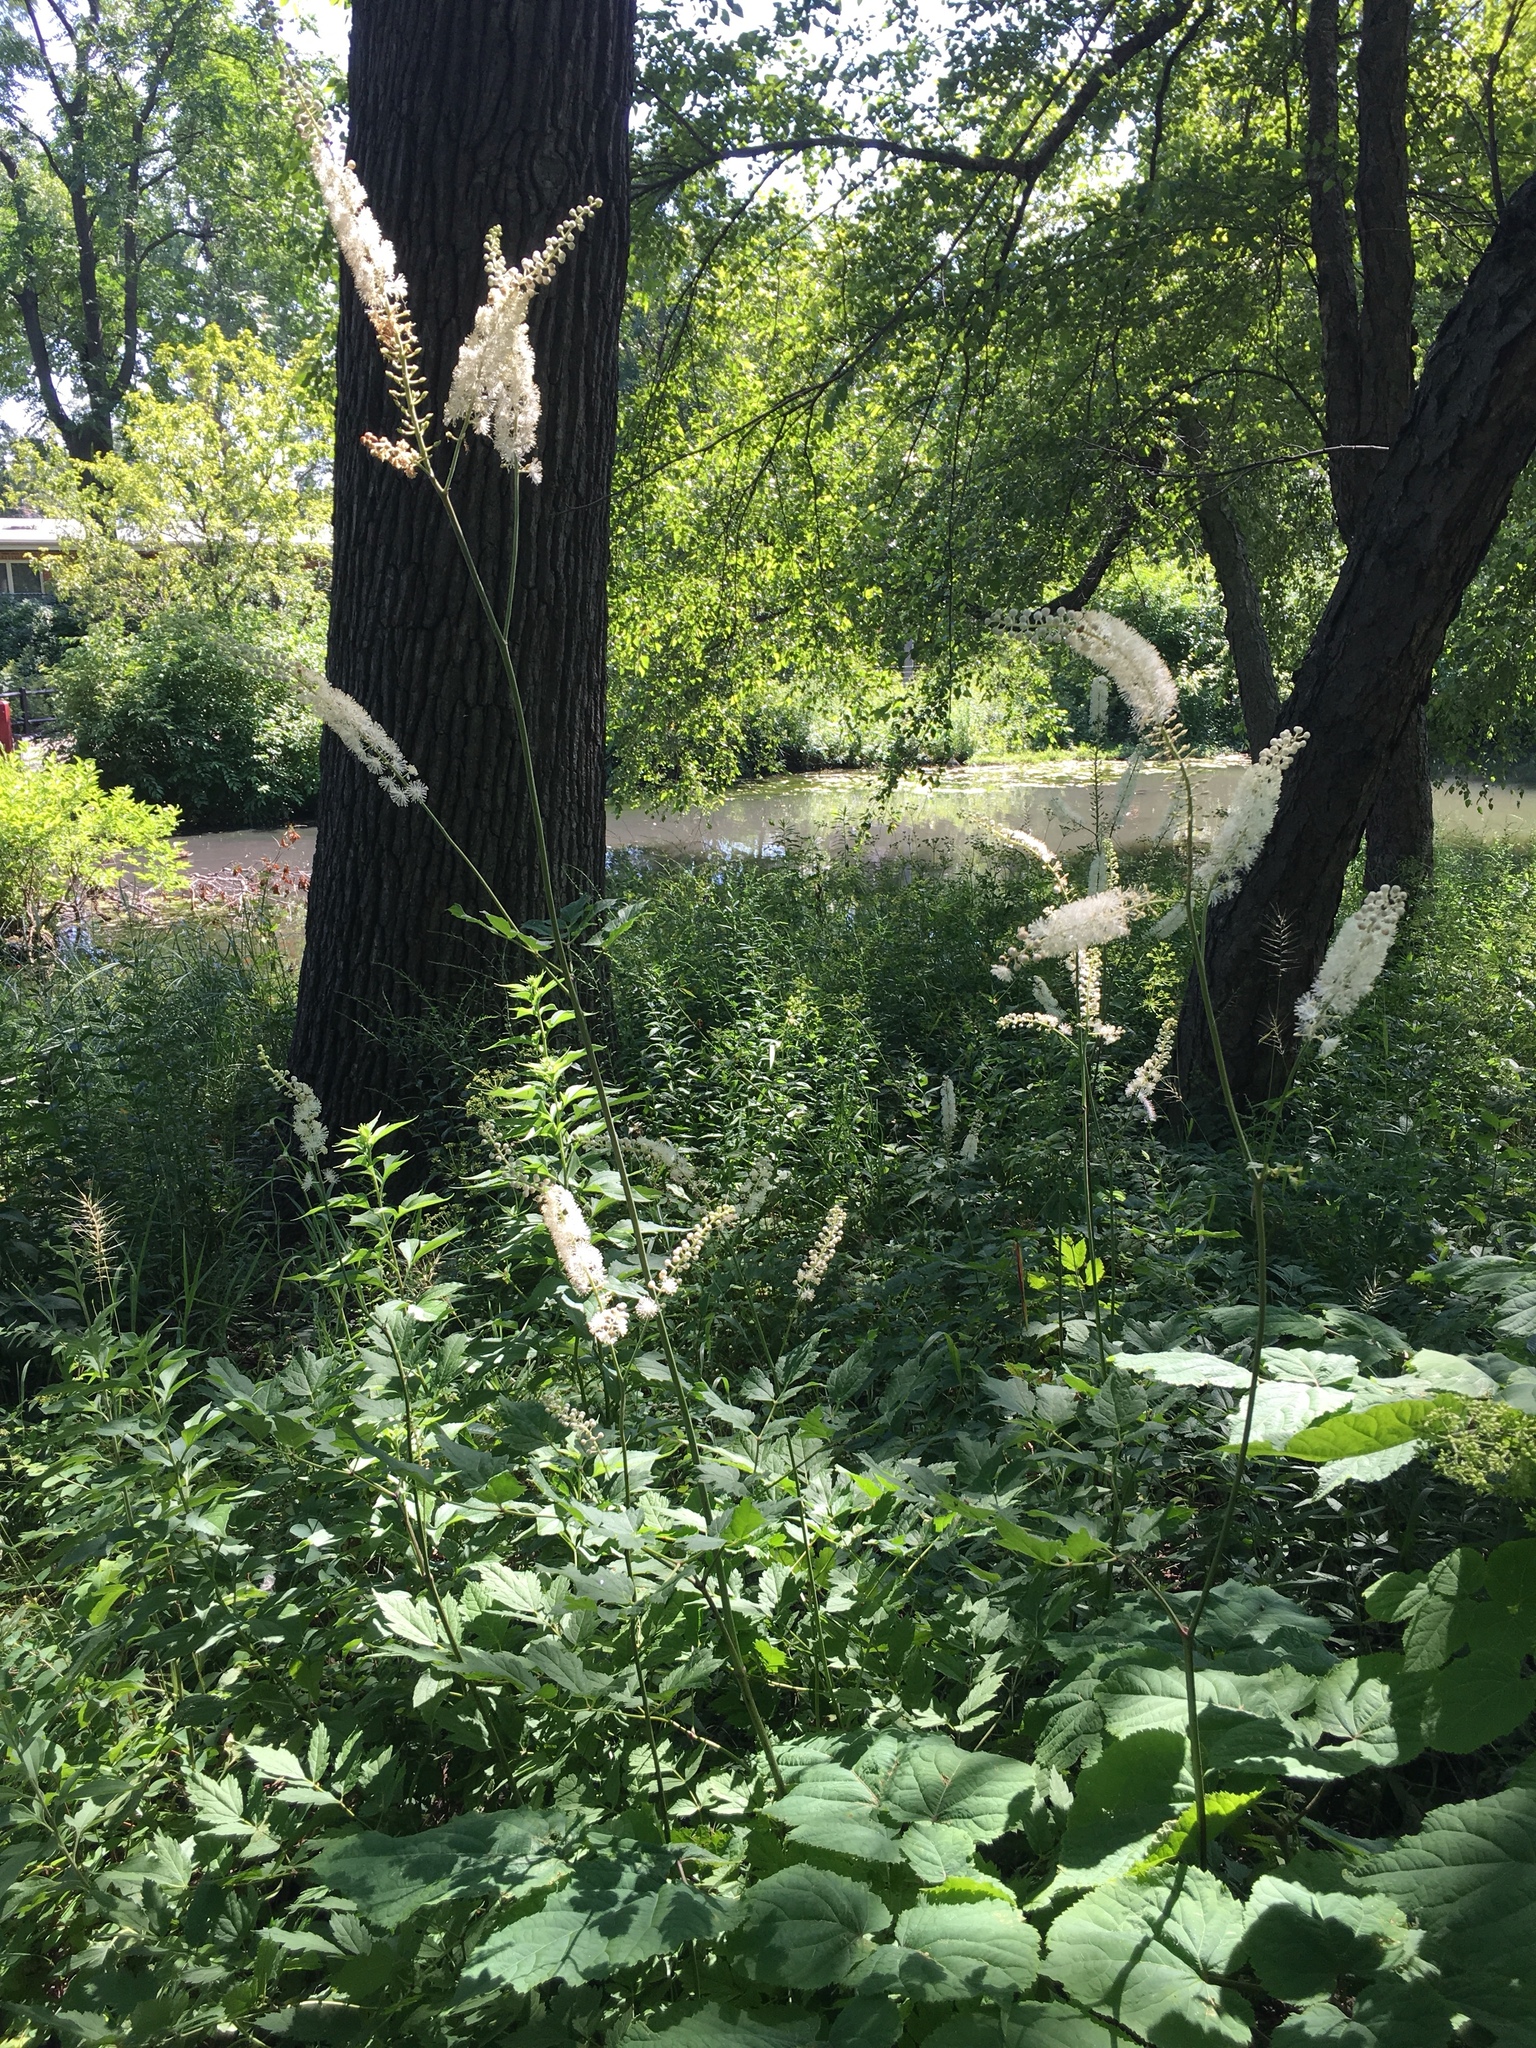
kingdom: Plantae
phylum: Tracheophyta
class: Magnoliopsida
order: Ranunculales
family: Ranunculaceae
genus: Actaea
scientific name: Actaea racemosa
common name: Black cohosh
